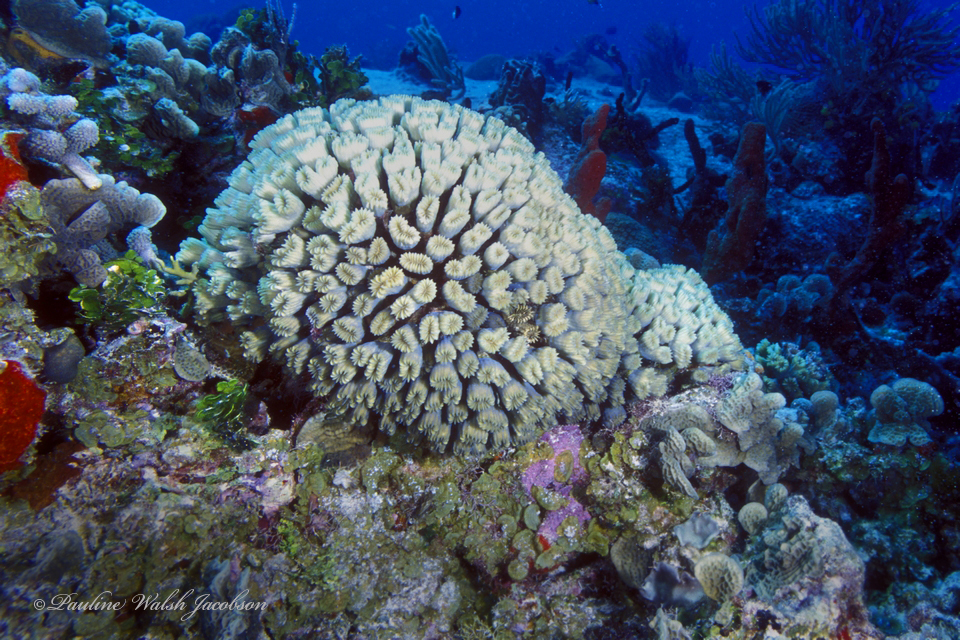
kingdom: Animalia
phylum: Cnidaria
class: Anthozoa
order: Scleractinia
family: Meandrinidae
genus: Eusmilia
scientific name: Eusmilia fastigiata
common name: Smooth flower coral
